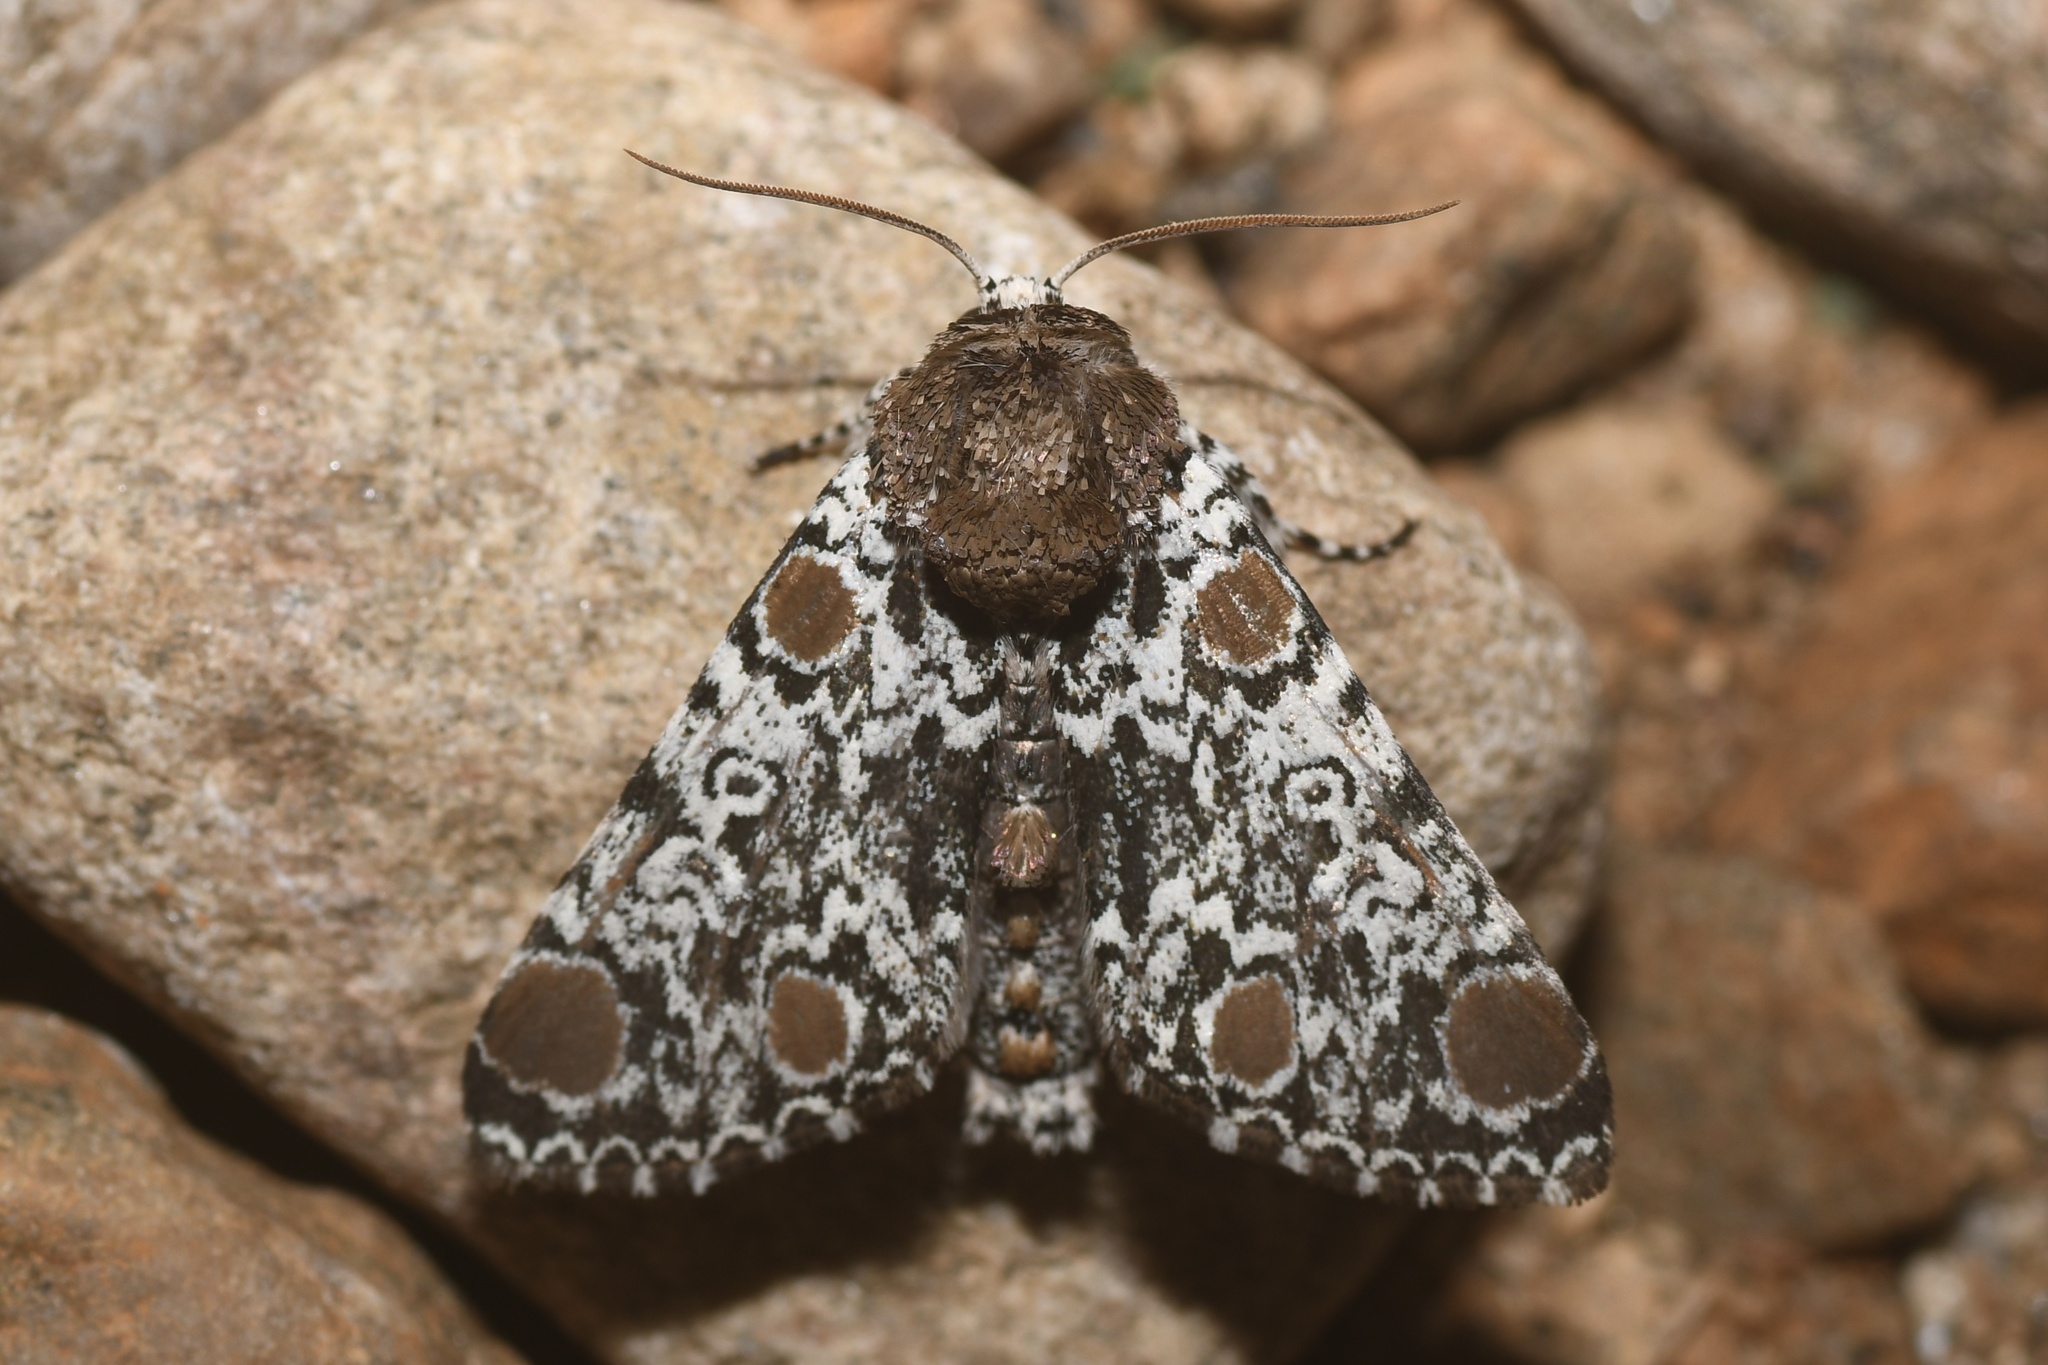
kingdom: Animalia
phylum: Arthropoda
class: Insecta
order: Lepidoptera
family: Noctuidae
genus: Harrisimemna
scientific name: Harrisimemna trisignata
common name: Harris threespot
